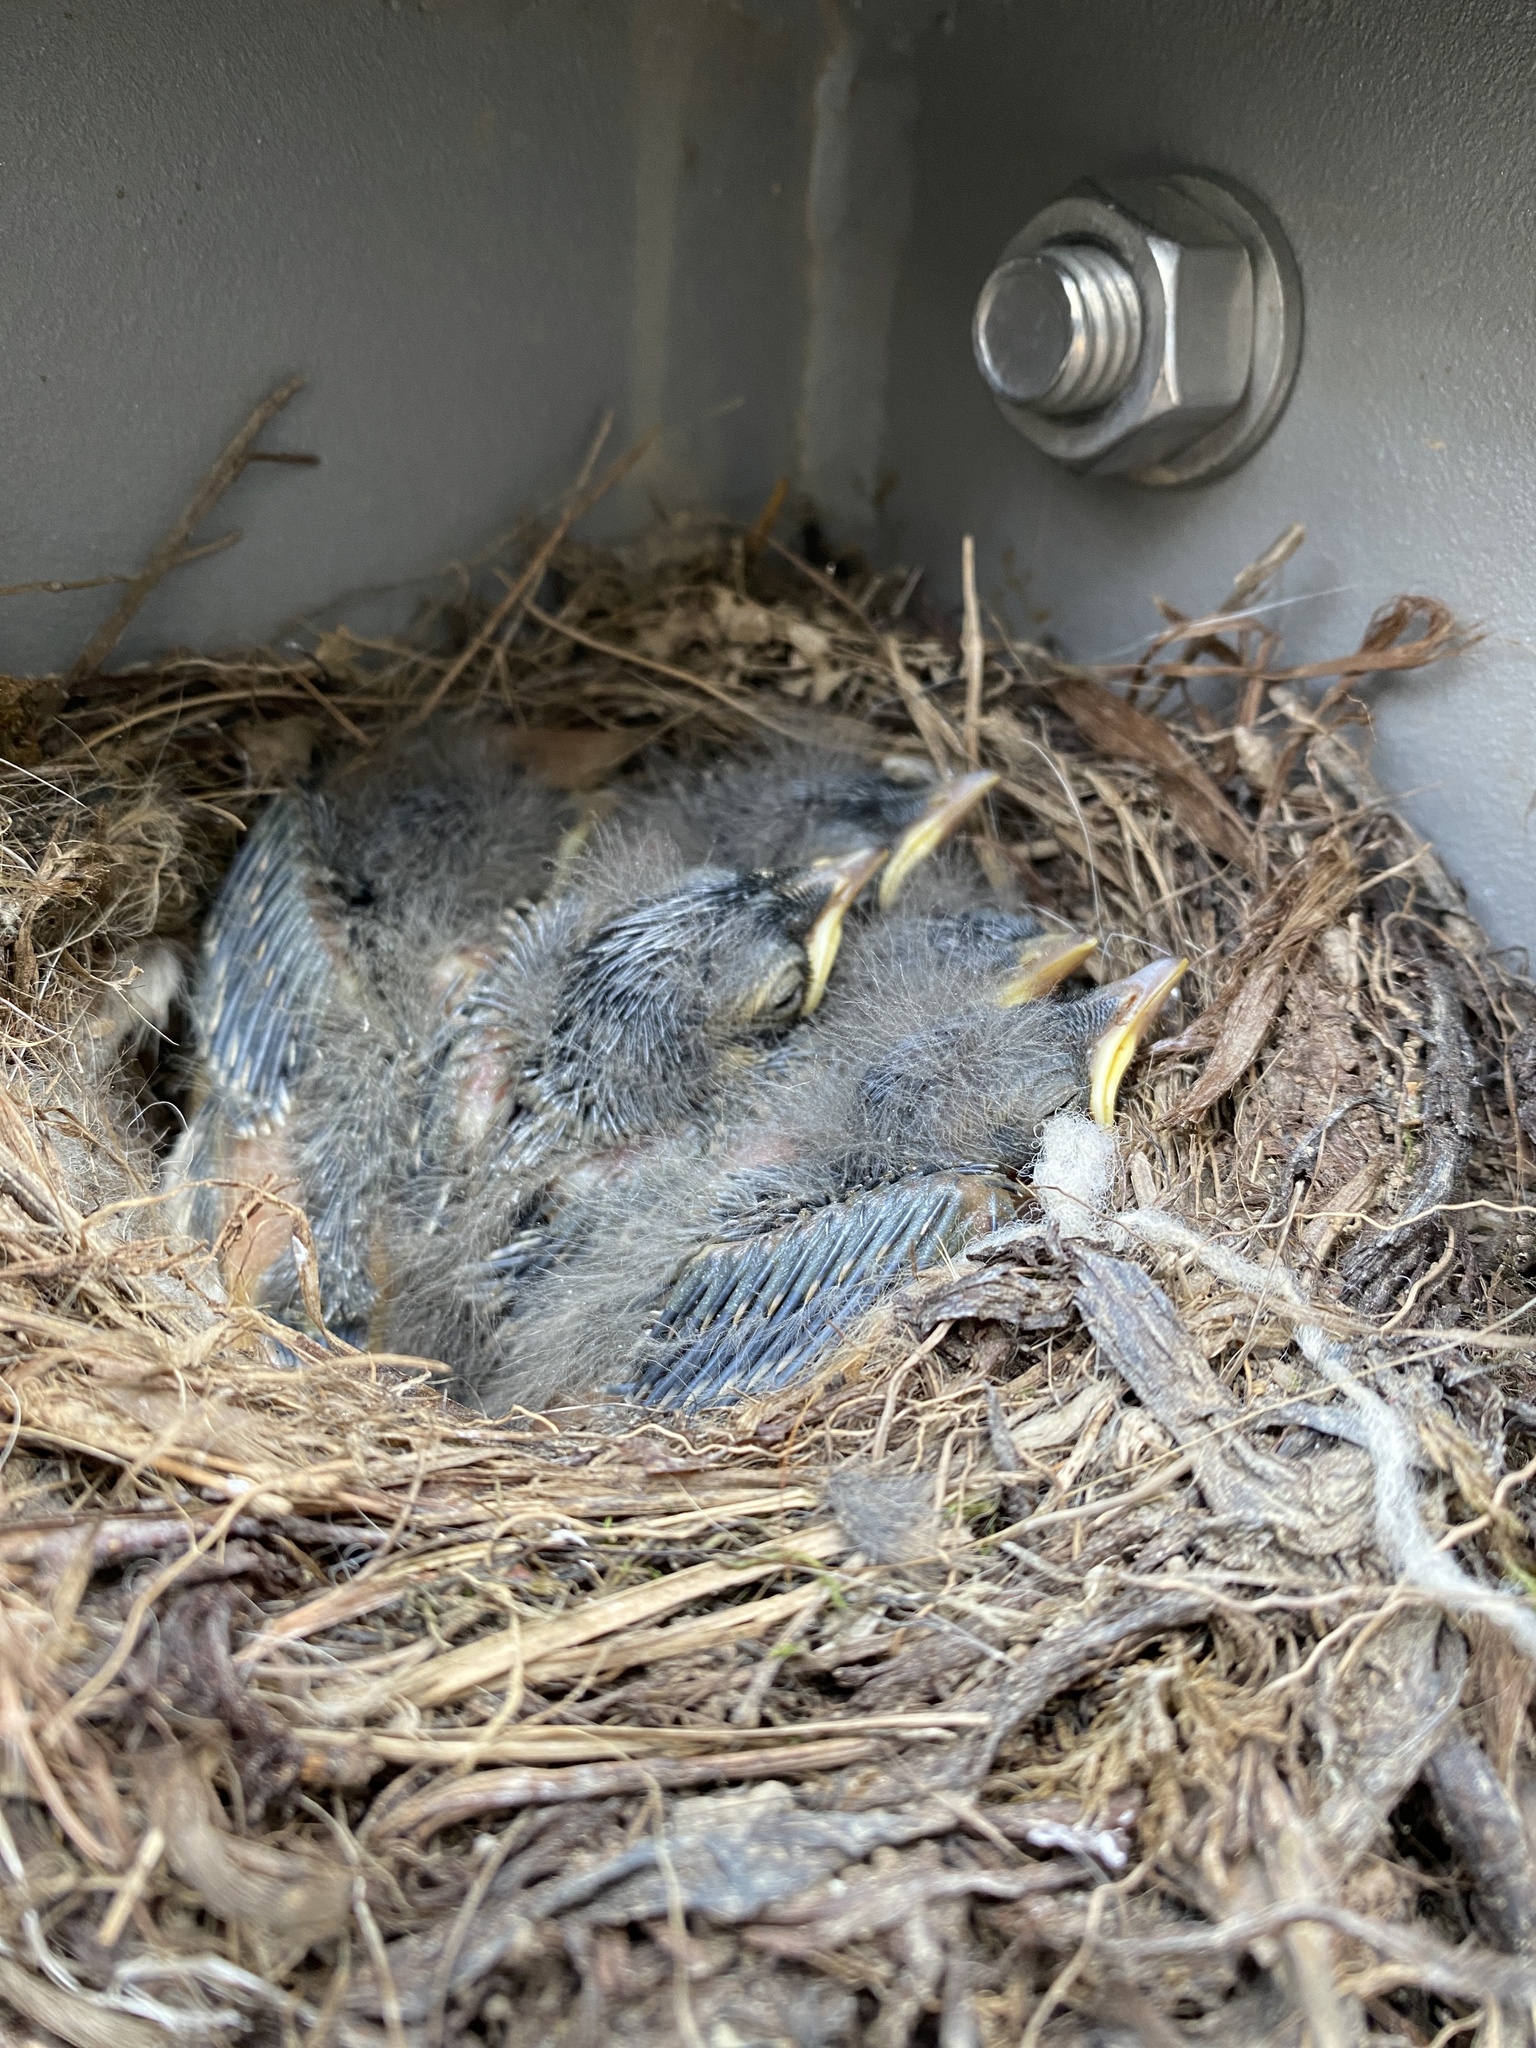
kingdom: Animalia
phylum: Chordata
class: Aves
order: Passeriformes
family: Motacillidae
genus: Motacilla
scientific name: Motacilla alba
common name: White wagtail
